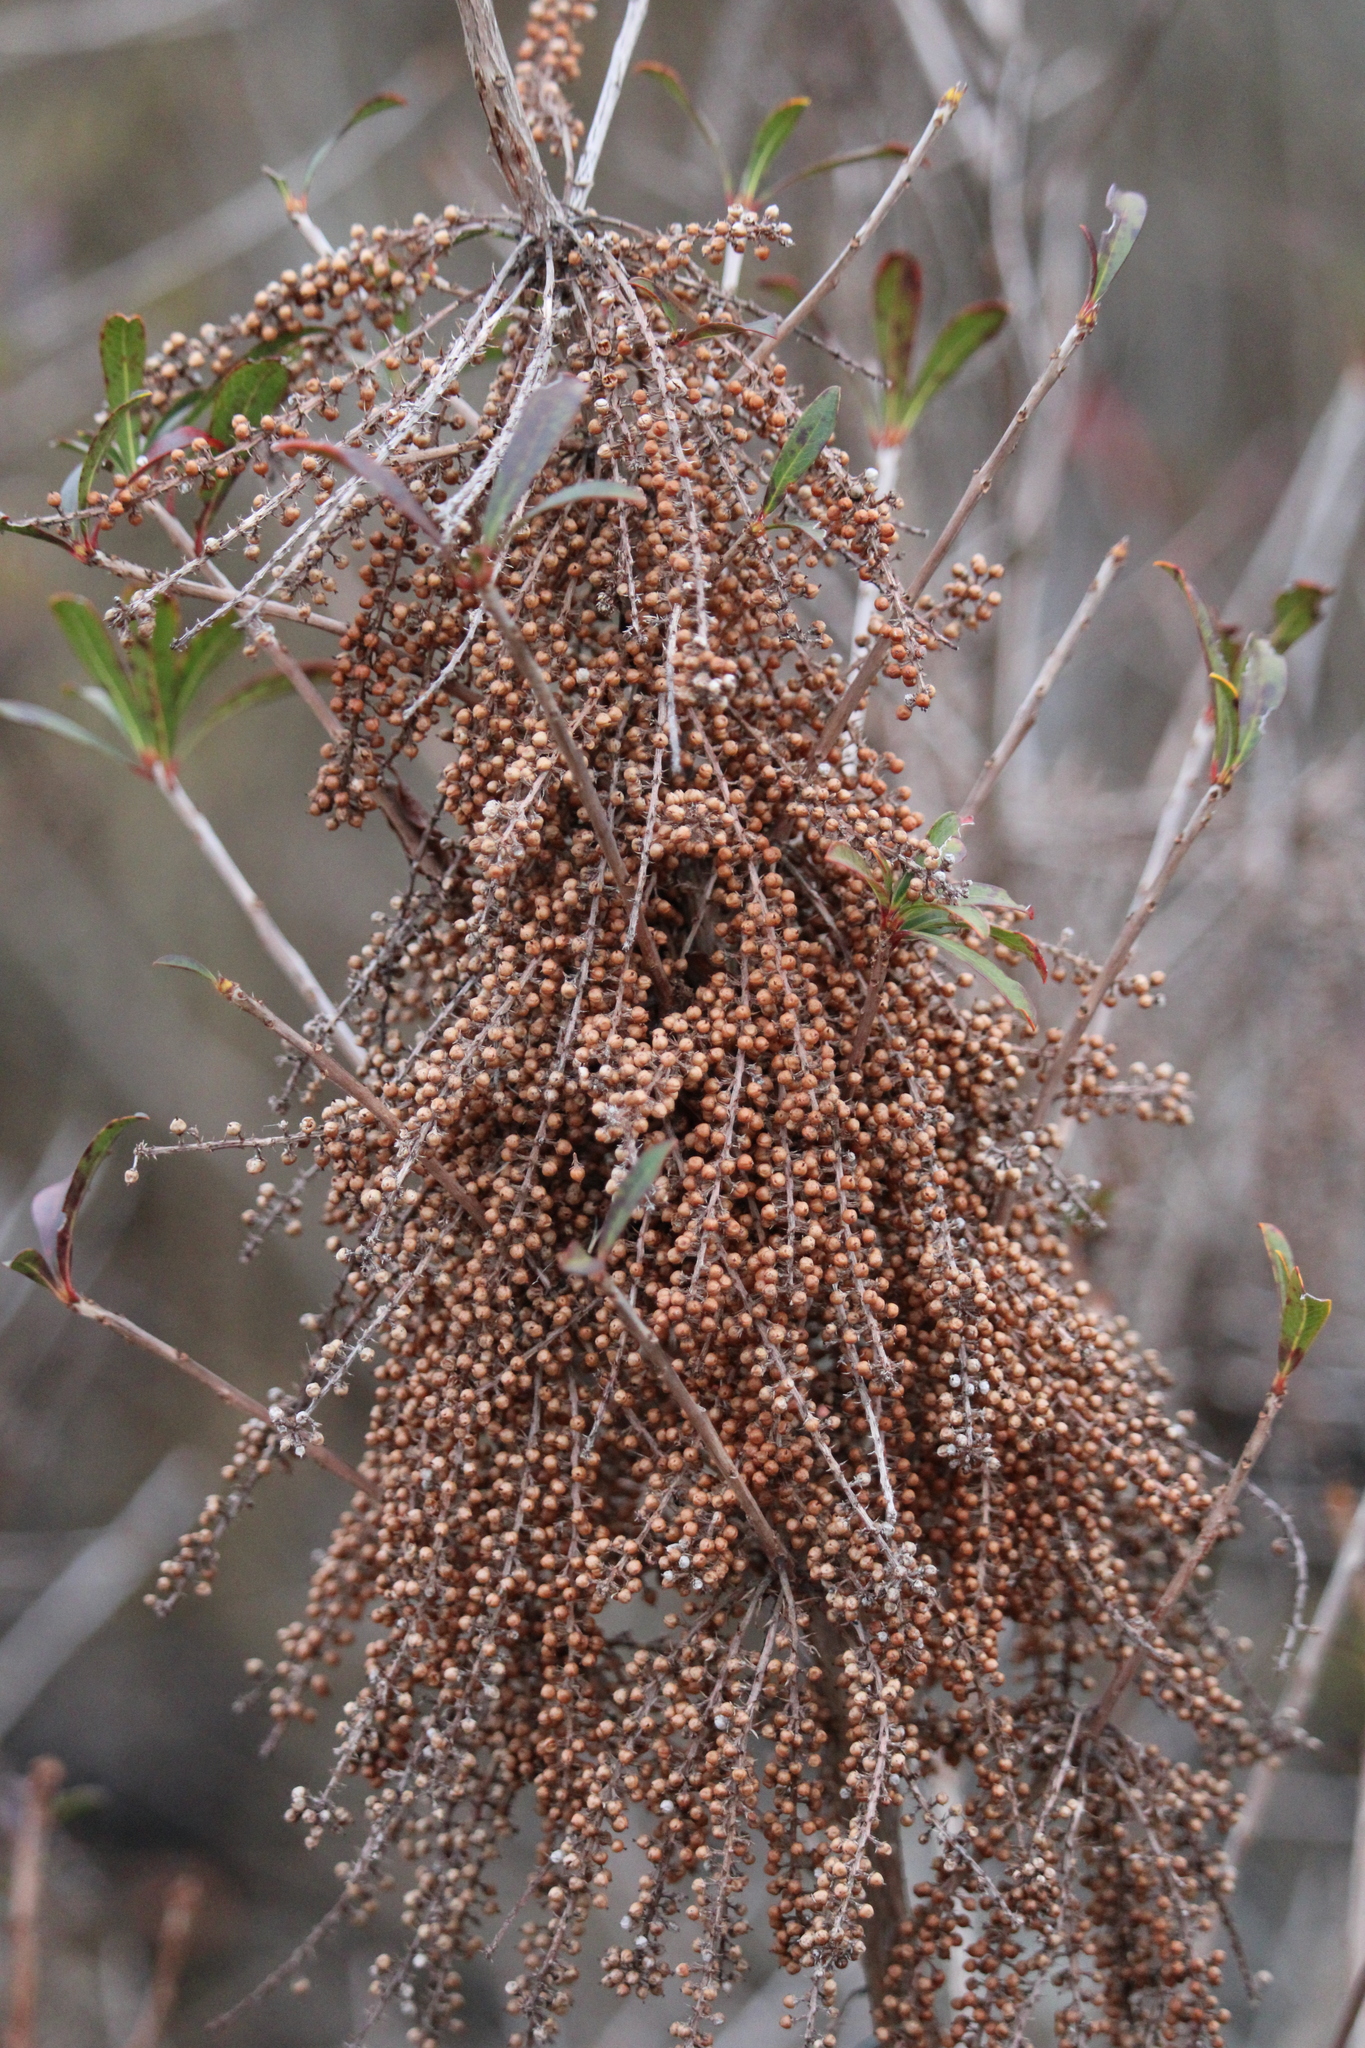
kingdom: Plantae
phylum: Tracheophyta
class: Magnoliopsida
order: Ericales
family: Cyrillaceae
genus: Cyrilla
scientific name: Cyrilla racemiflora
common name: Black titi
